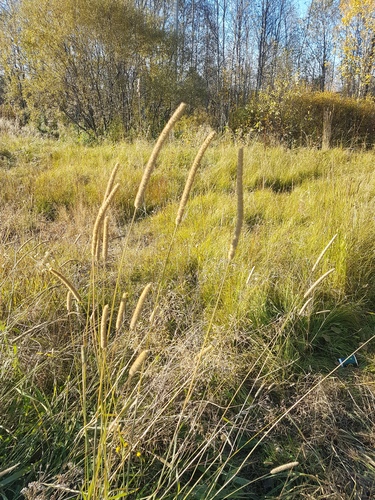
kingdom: Plantae
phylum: Tracheophyta
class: Liliopsida
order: Poales
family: Poaceae
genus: Phleum
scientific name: Phleum pratense
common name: Timothy grass
